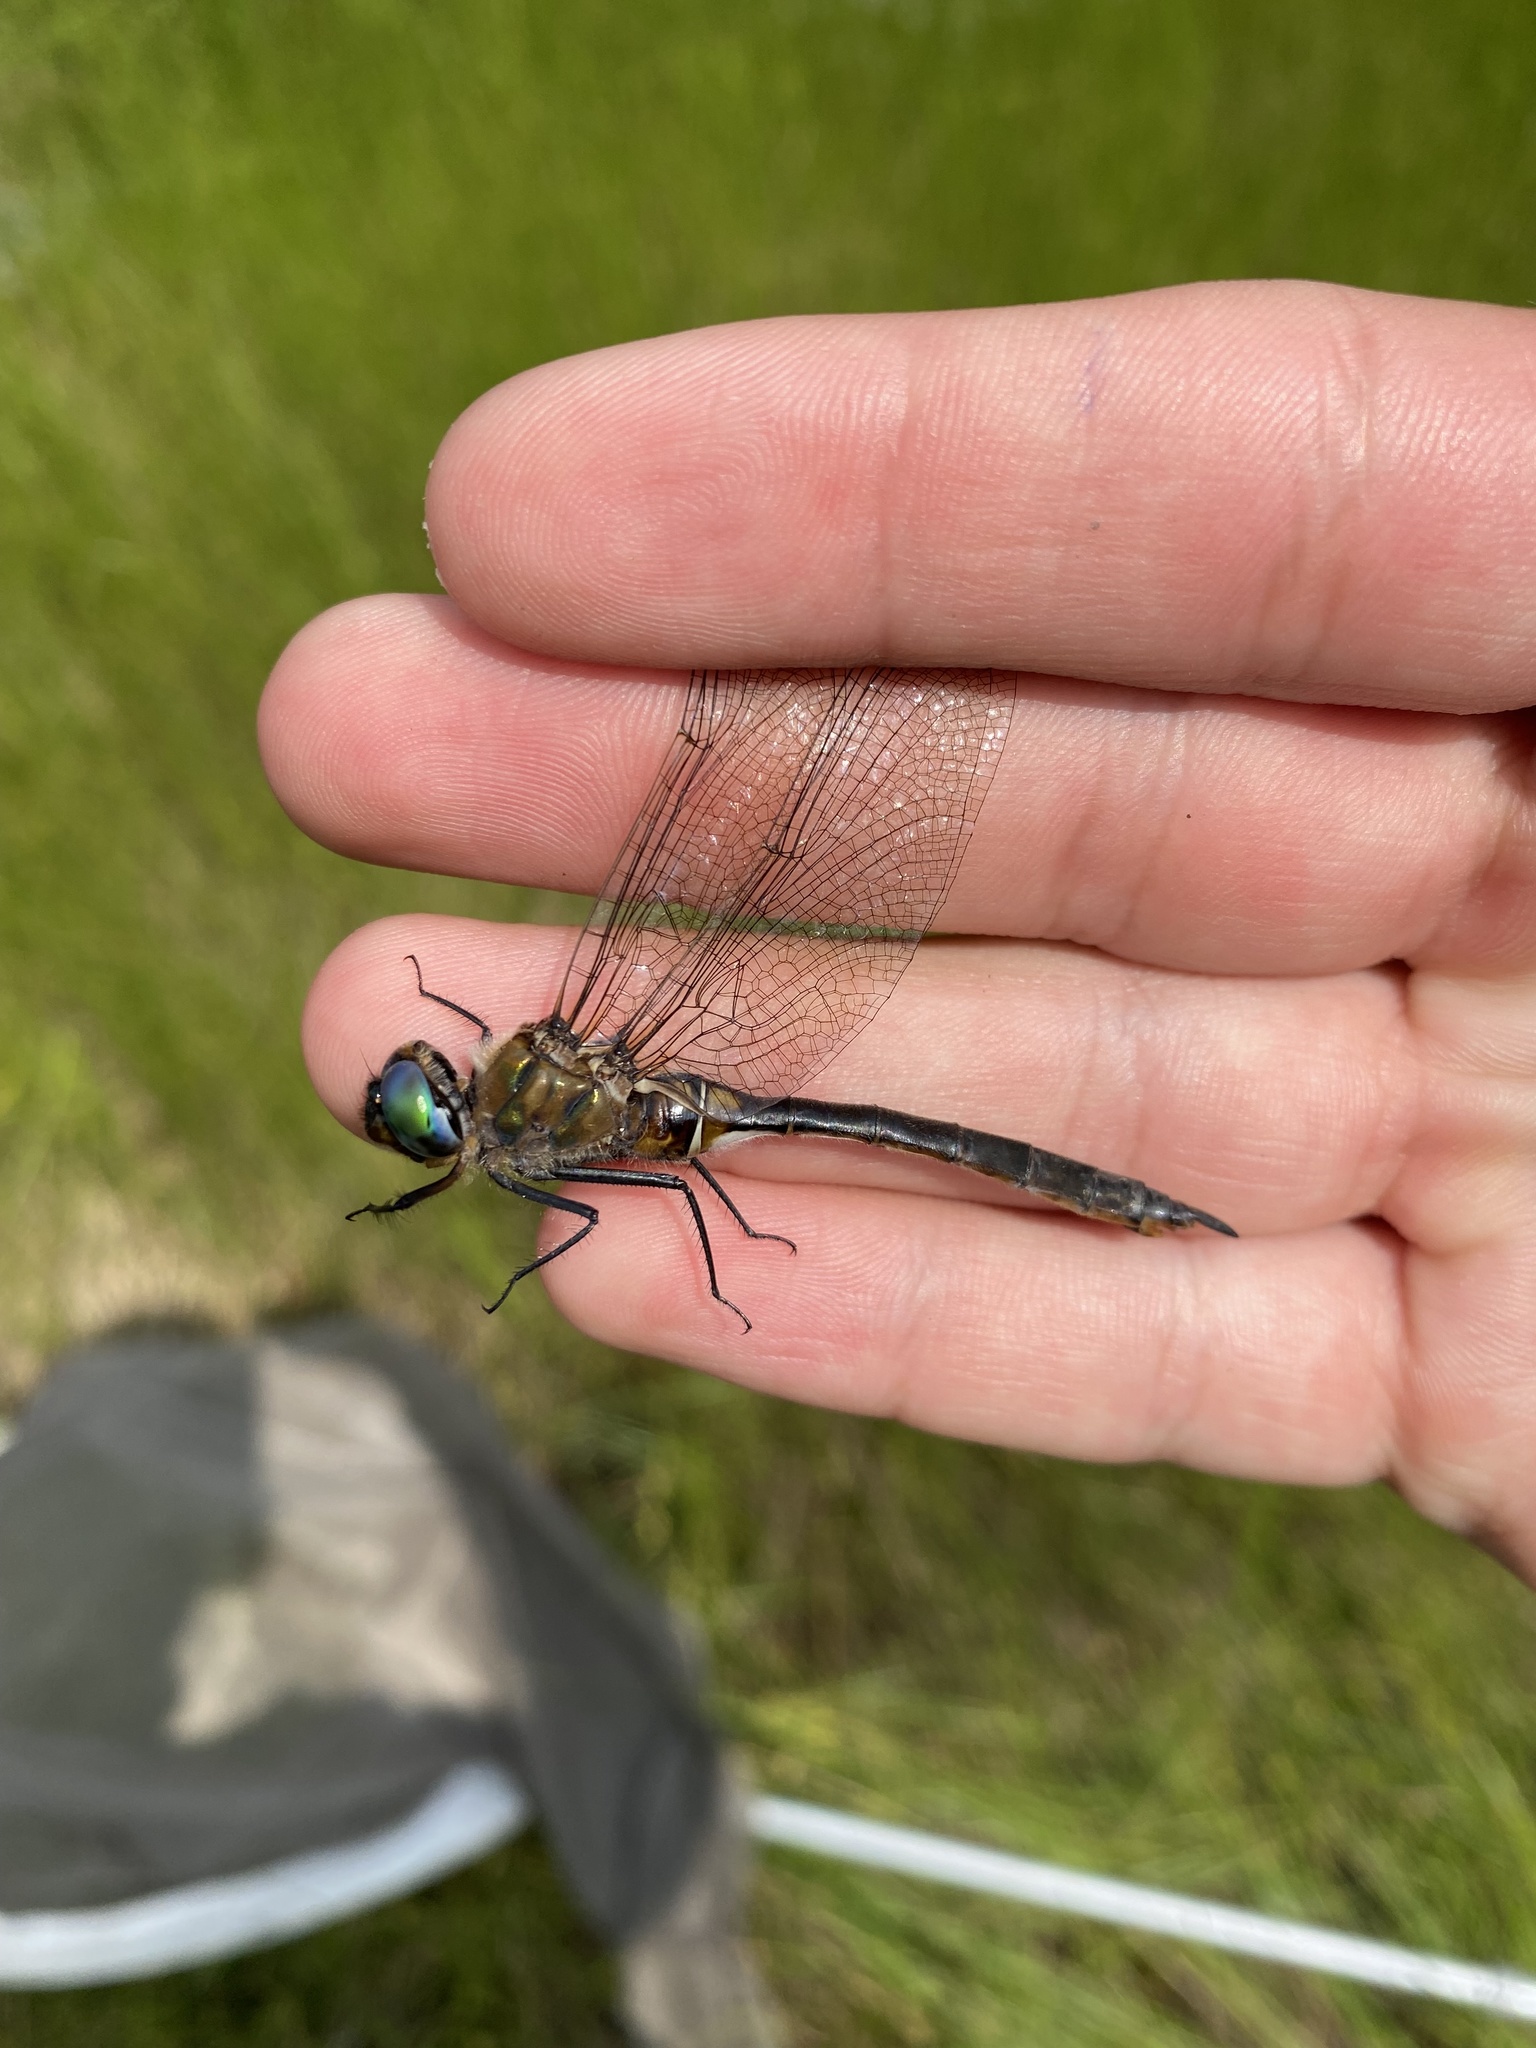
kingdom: Animalia
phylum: Arthropoda
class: Insecta
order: Odonata
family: Corduliidae
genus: Cordulia
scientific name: Cordulia shurtleffii
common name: American emerald
